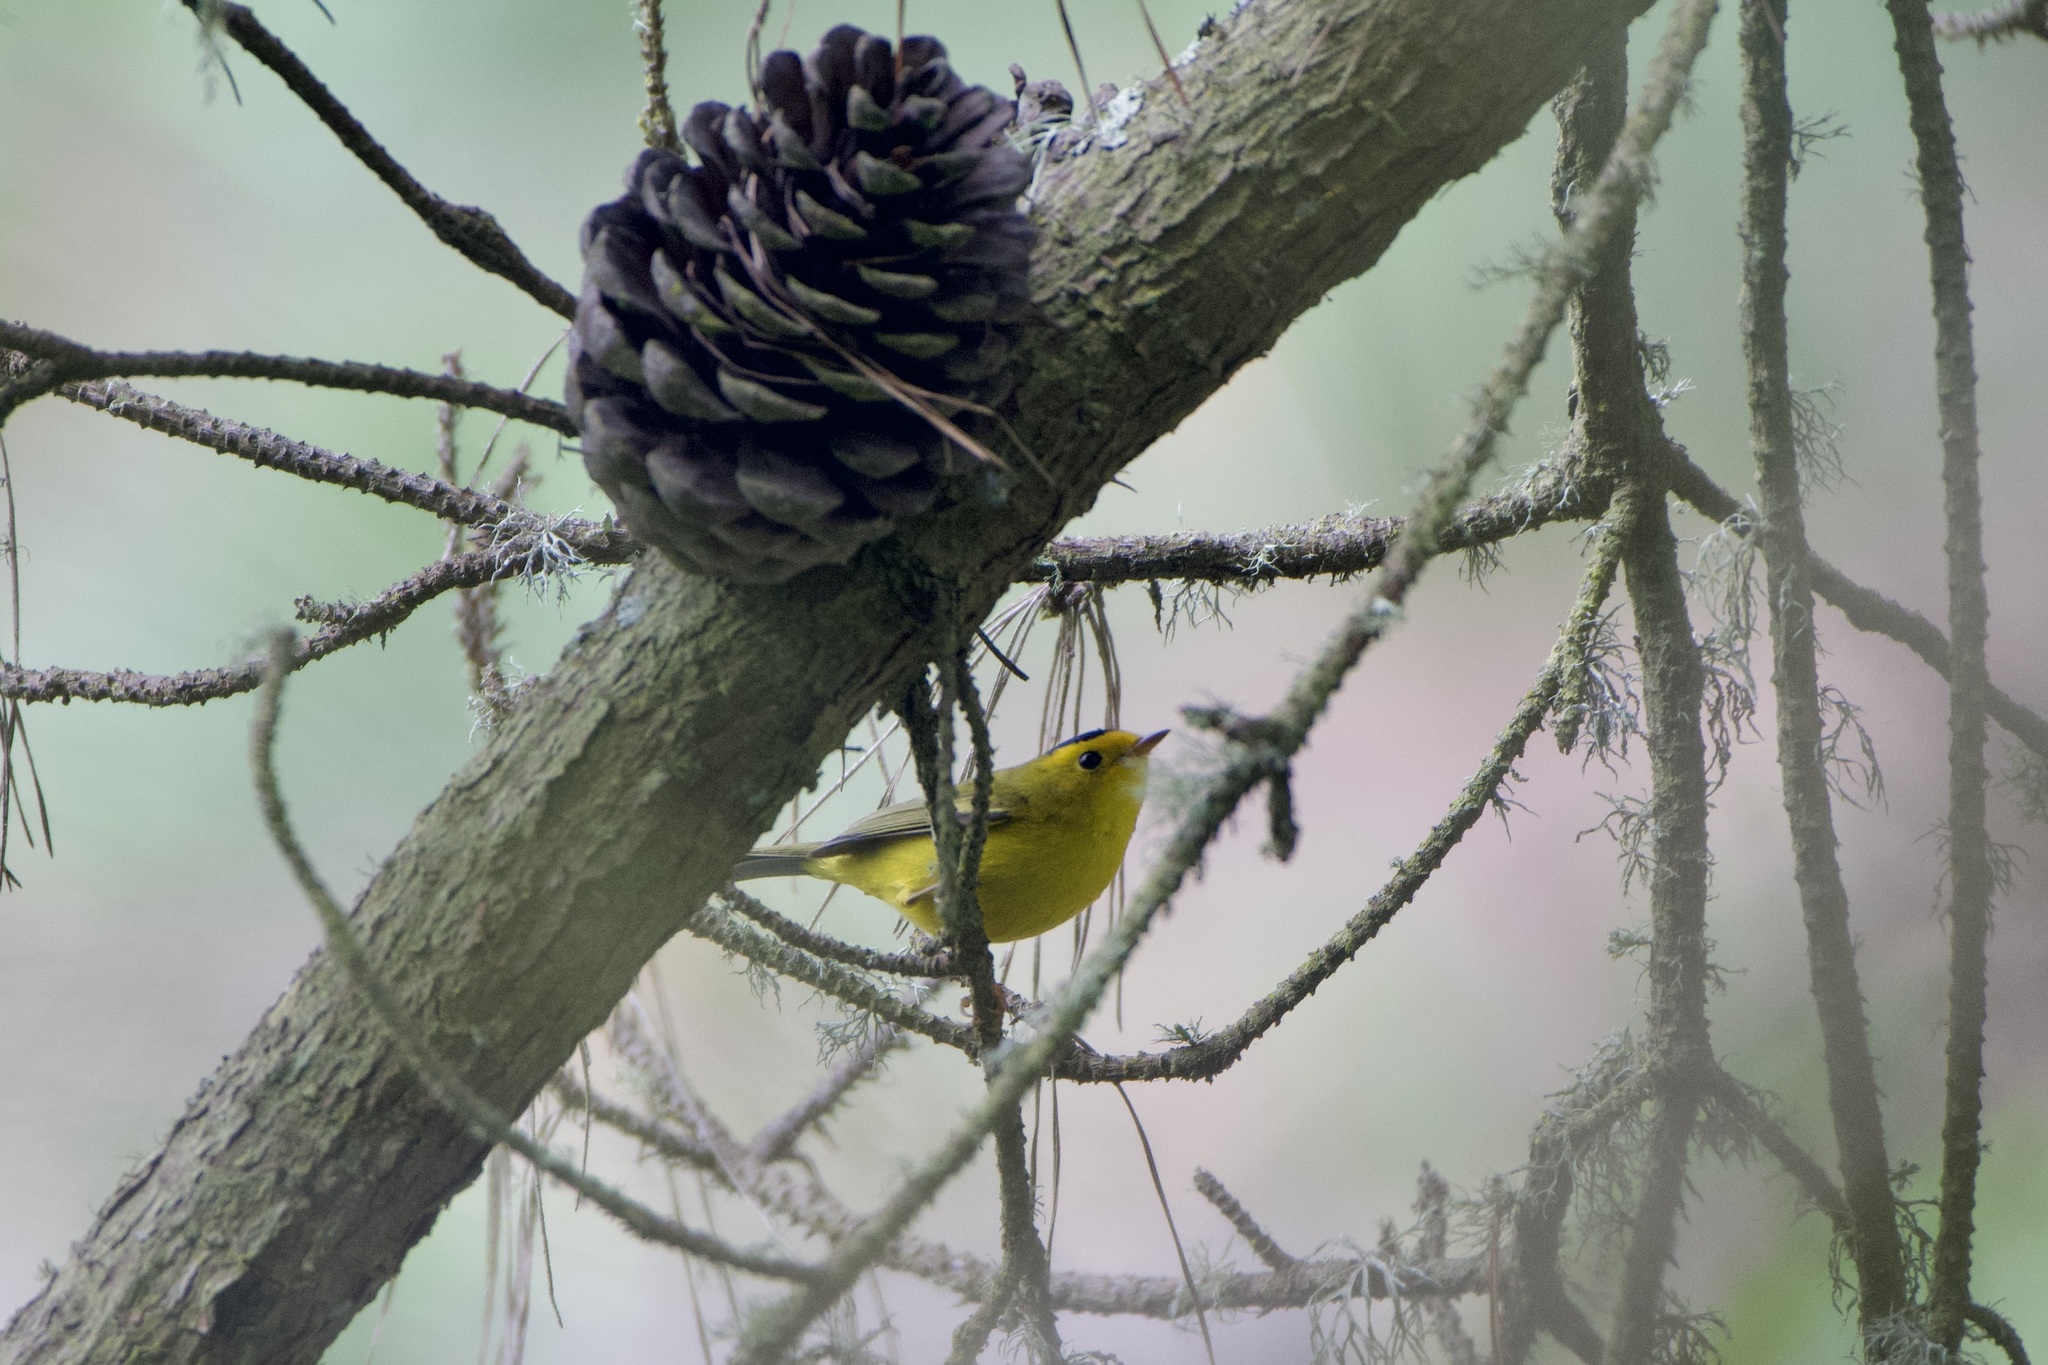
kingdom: Animalia
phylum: Chordata
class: Aves
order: Passeriformes
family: Parulidae
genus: Cardellina
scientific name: Cardellina pusilla
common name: Wilson's warbler
